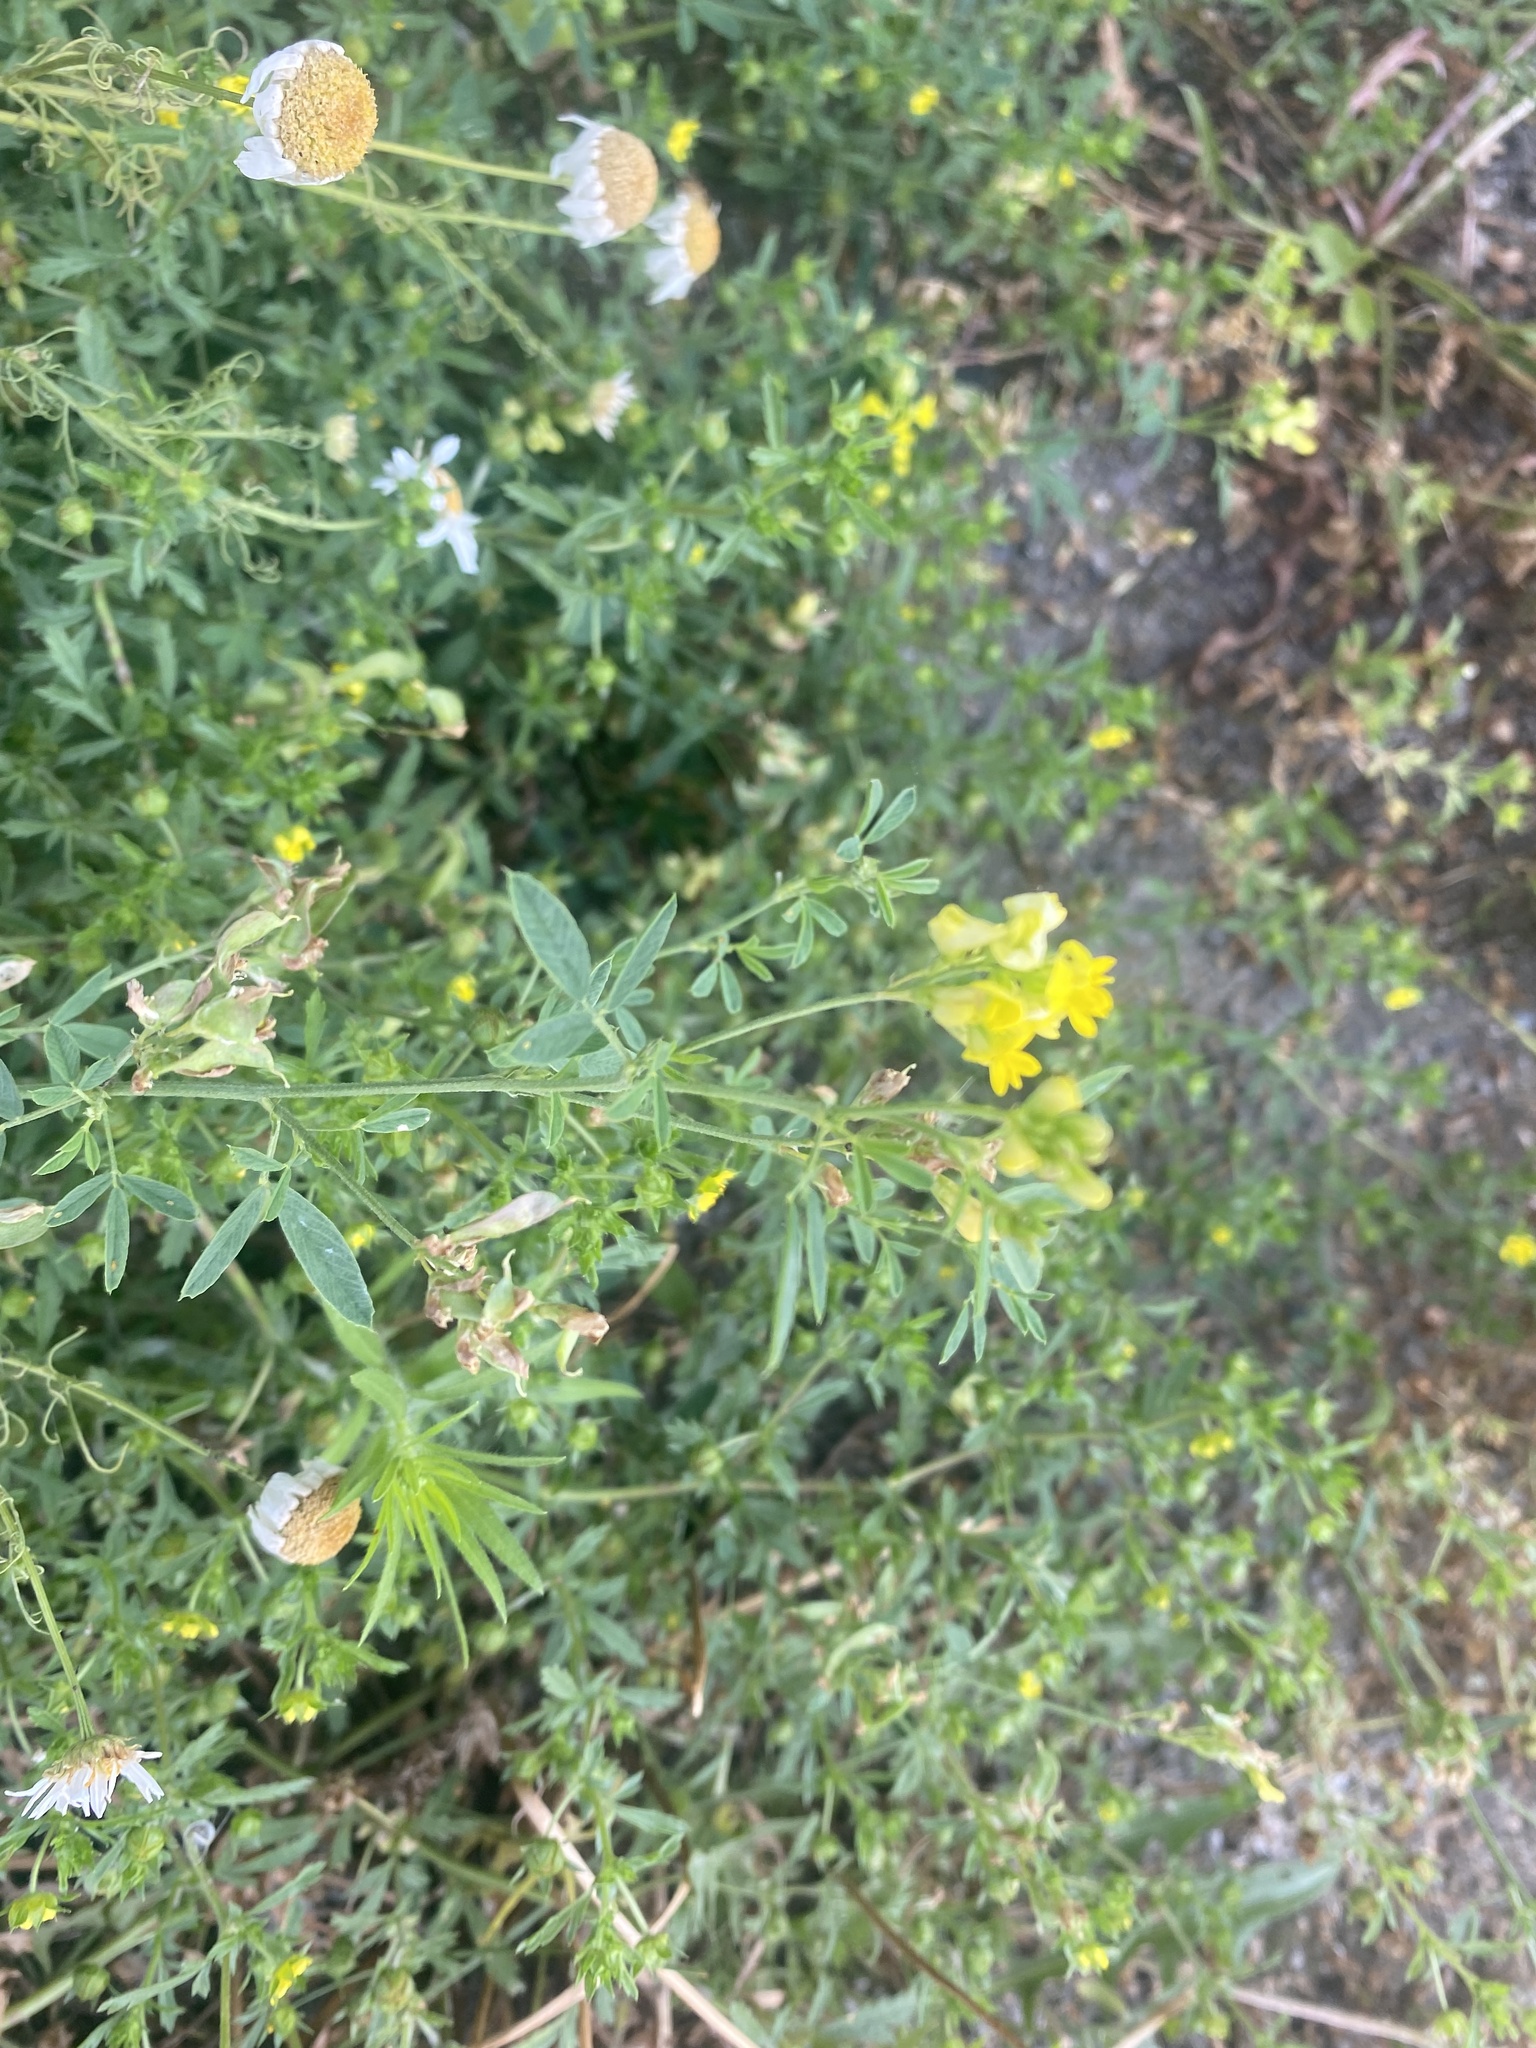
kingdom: Plantae
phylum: Tracheophyta
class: Magnoliopsida
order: Fabales
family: Fabaceae
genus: Medicago
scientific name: Medicago falcata
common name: Sickle medick
